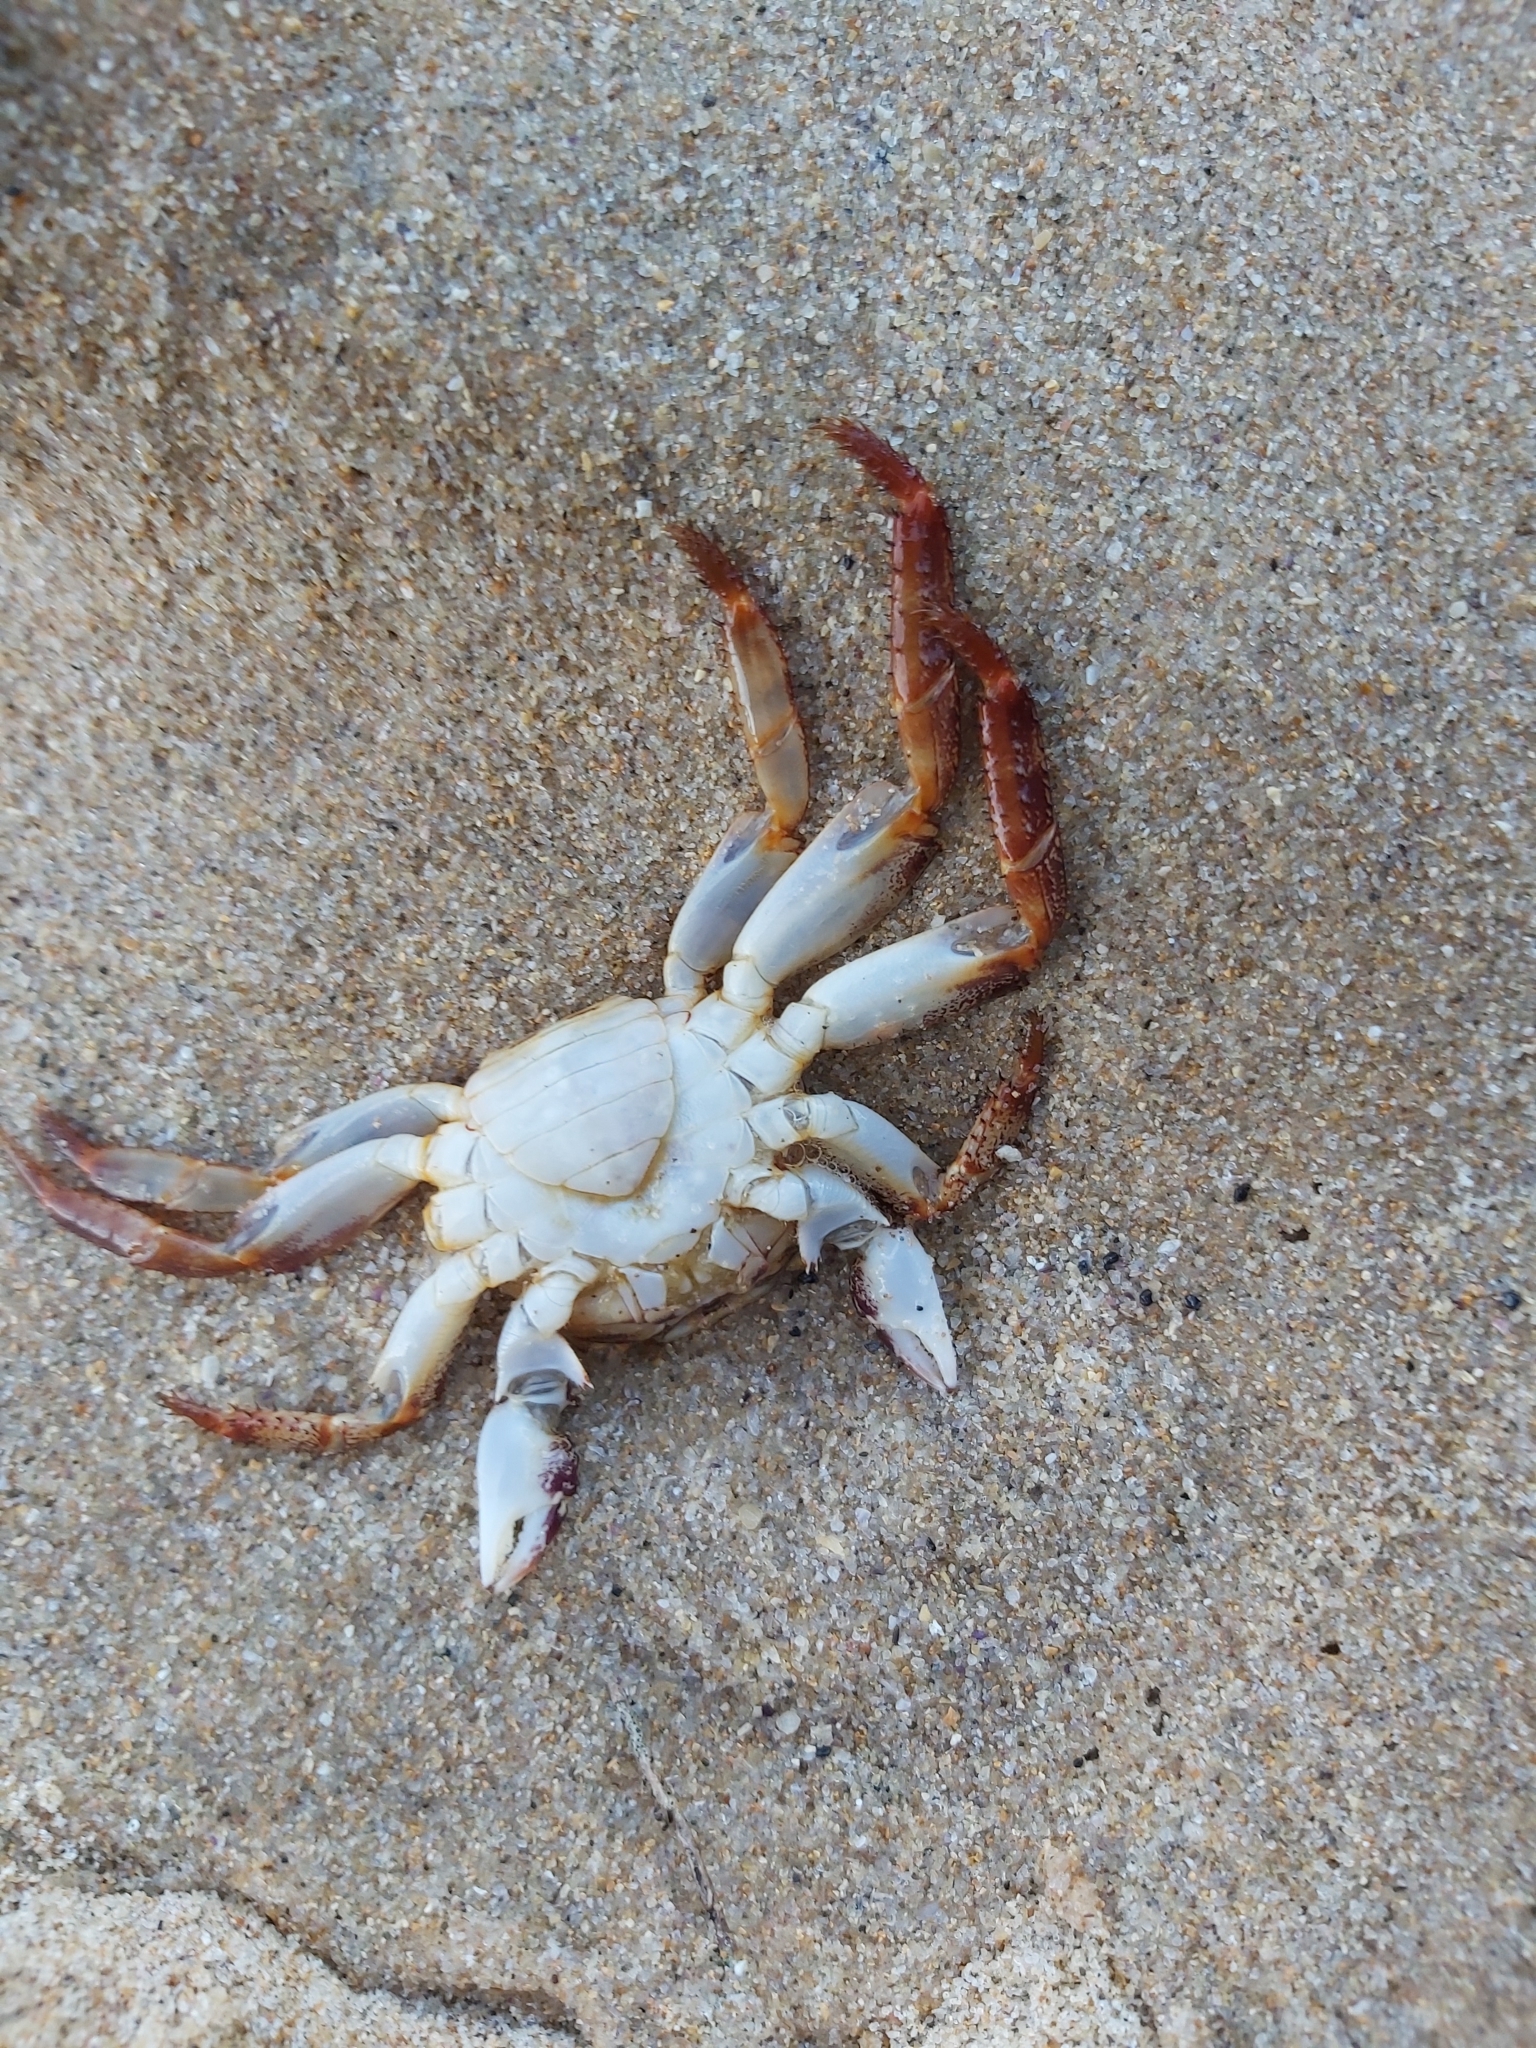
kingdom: Animalia
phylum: Arthropoda
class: Malacostraca
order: Decapoda
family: Grapsidae
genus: Leptograpsus
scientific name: Leptograpsus variegatus
